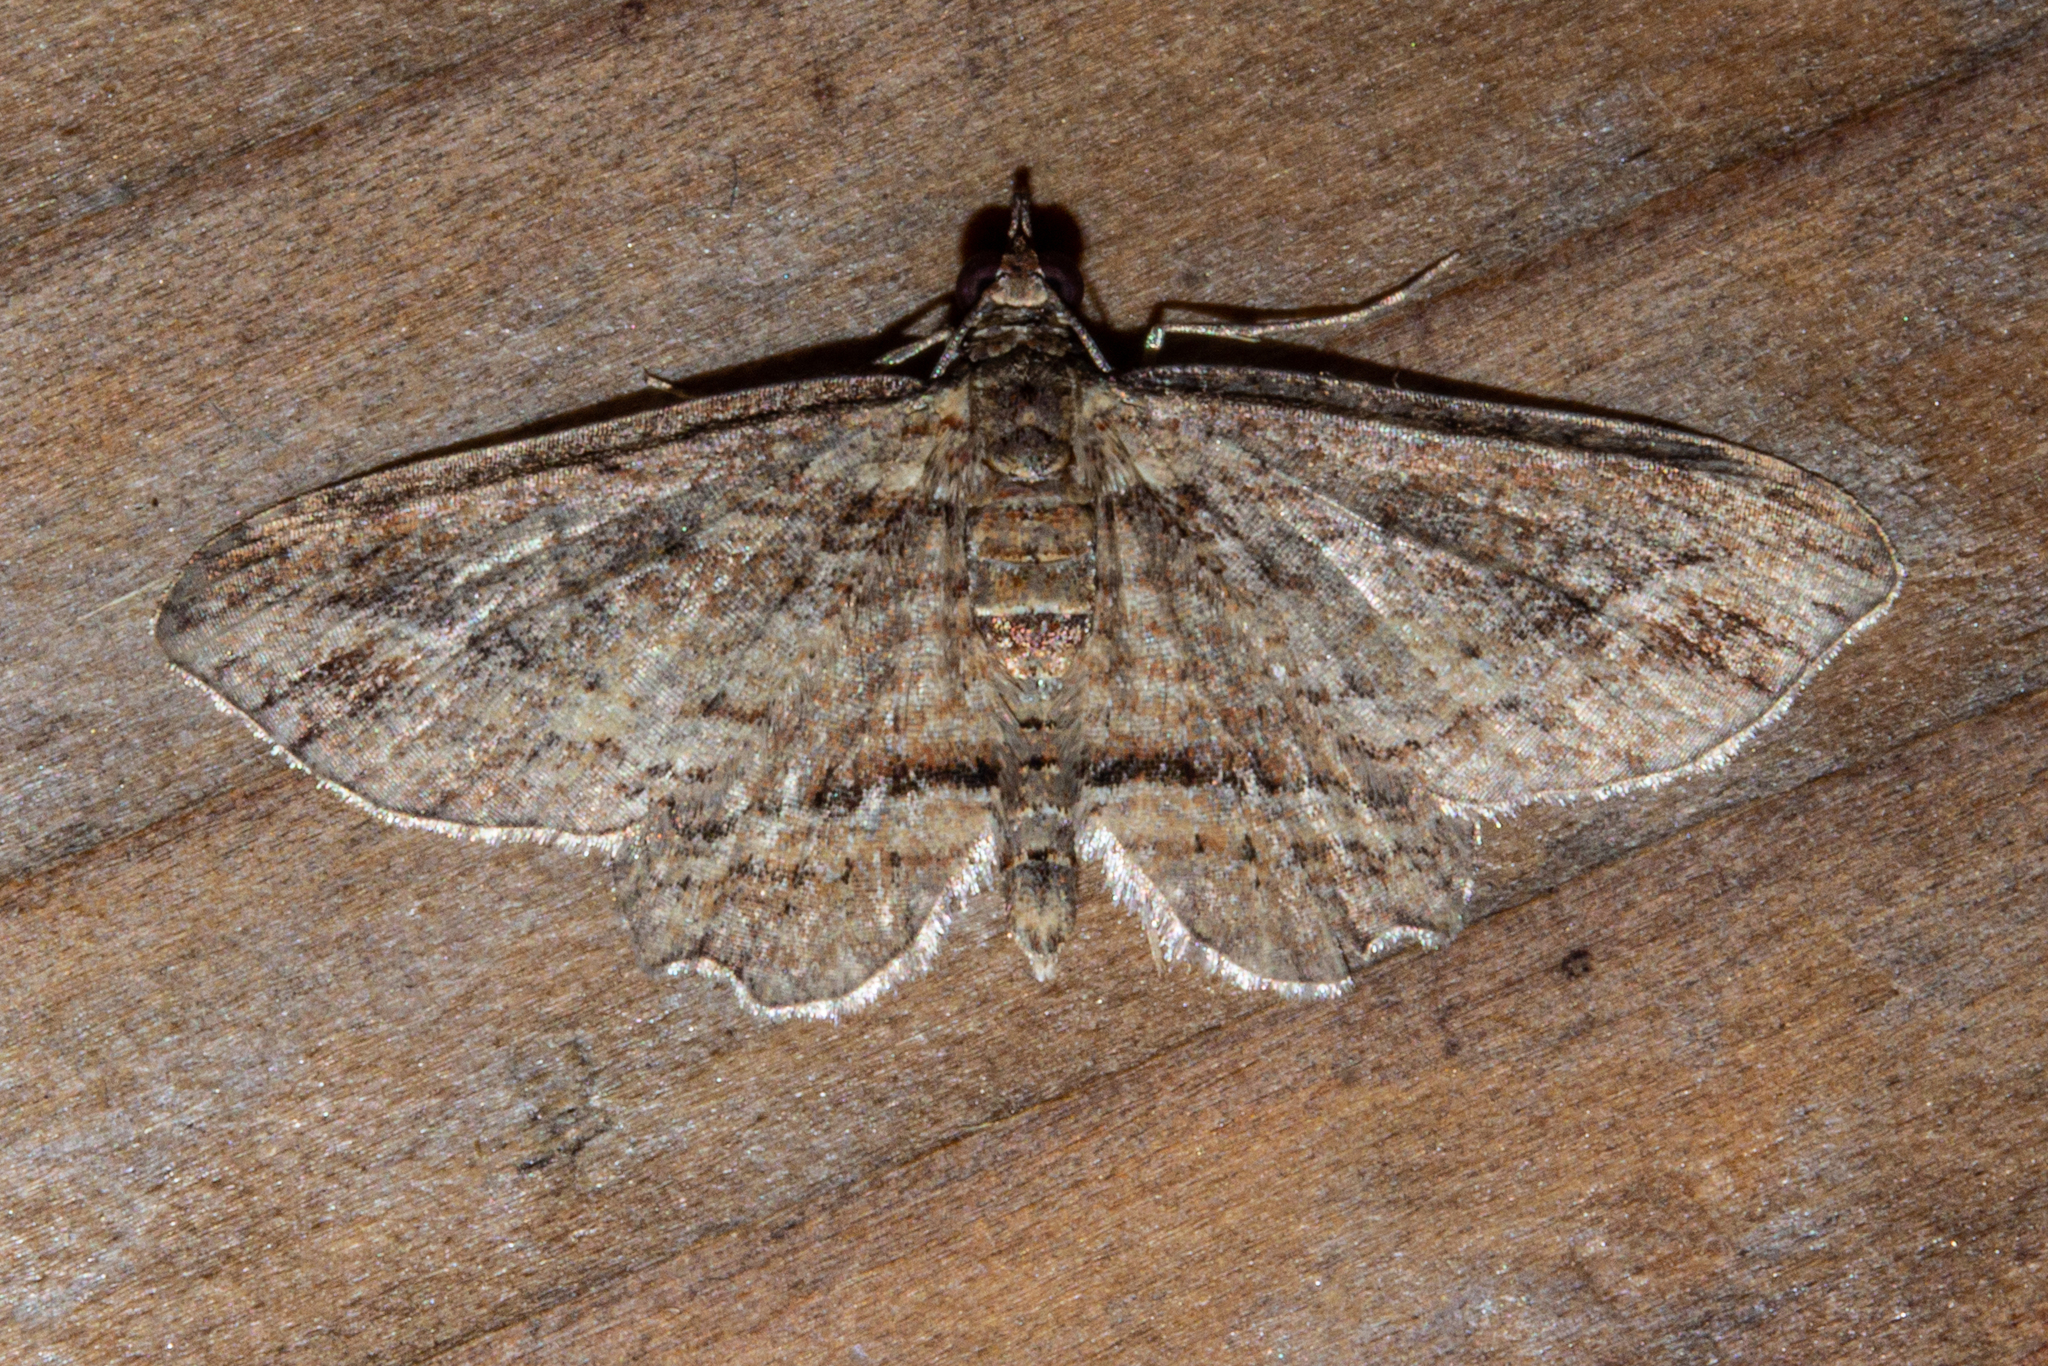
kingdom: Animalia
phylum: Arthropoda
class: Insecta
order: Lepidoptera
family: Geometridae
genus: Chloroclystis
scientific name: Chloroclystis filata
